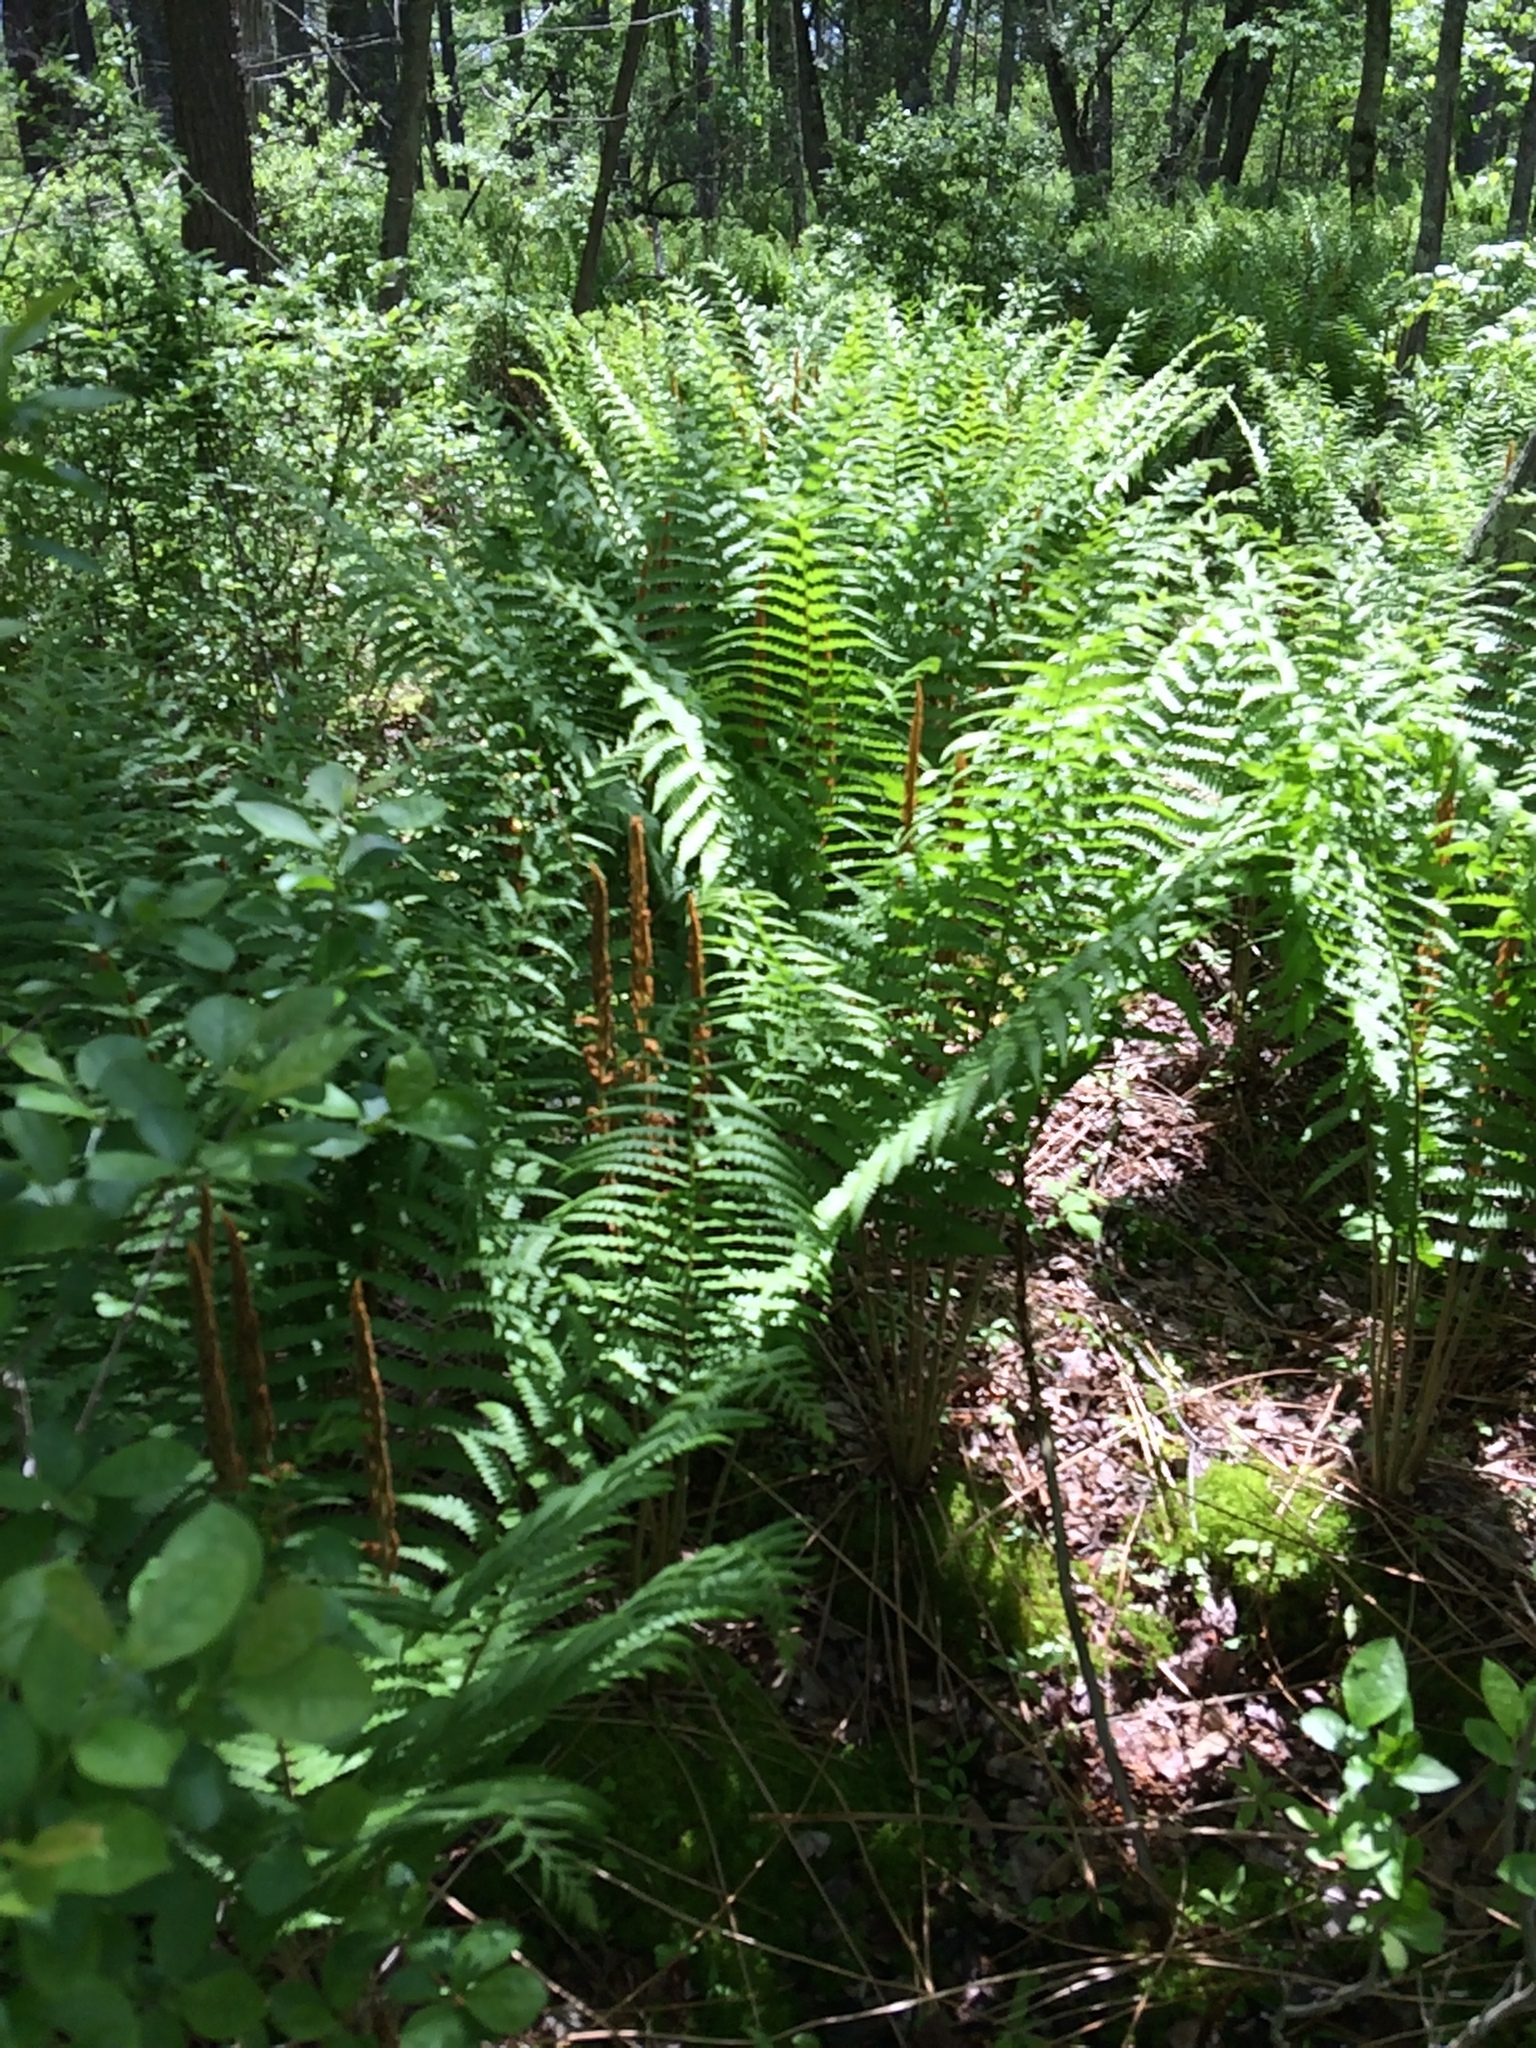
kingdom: Plantae
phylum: Tracheophyta
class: Polypodiopsida
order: Osmundales
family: Osmundaceae
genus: Osmundastrum
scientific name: Osmundastrum cinnamomeum
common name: Cinnamon fern
